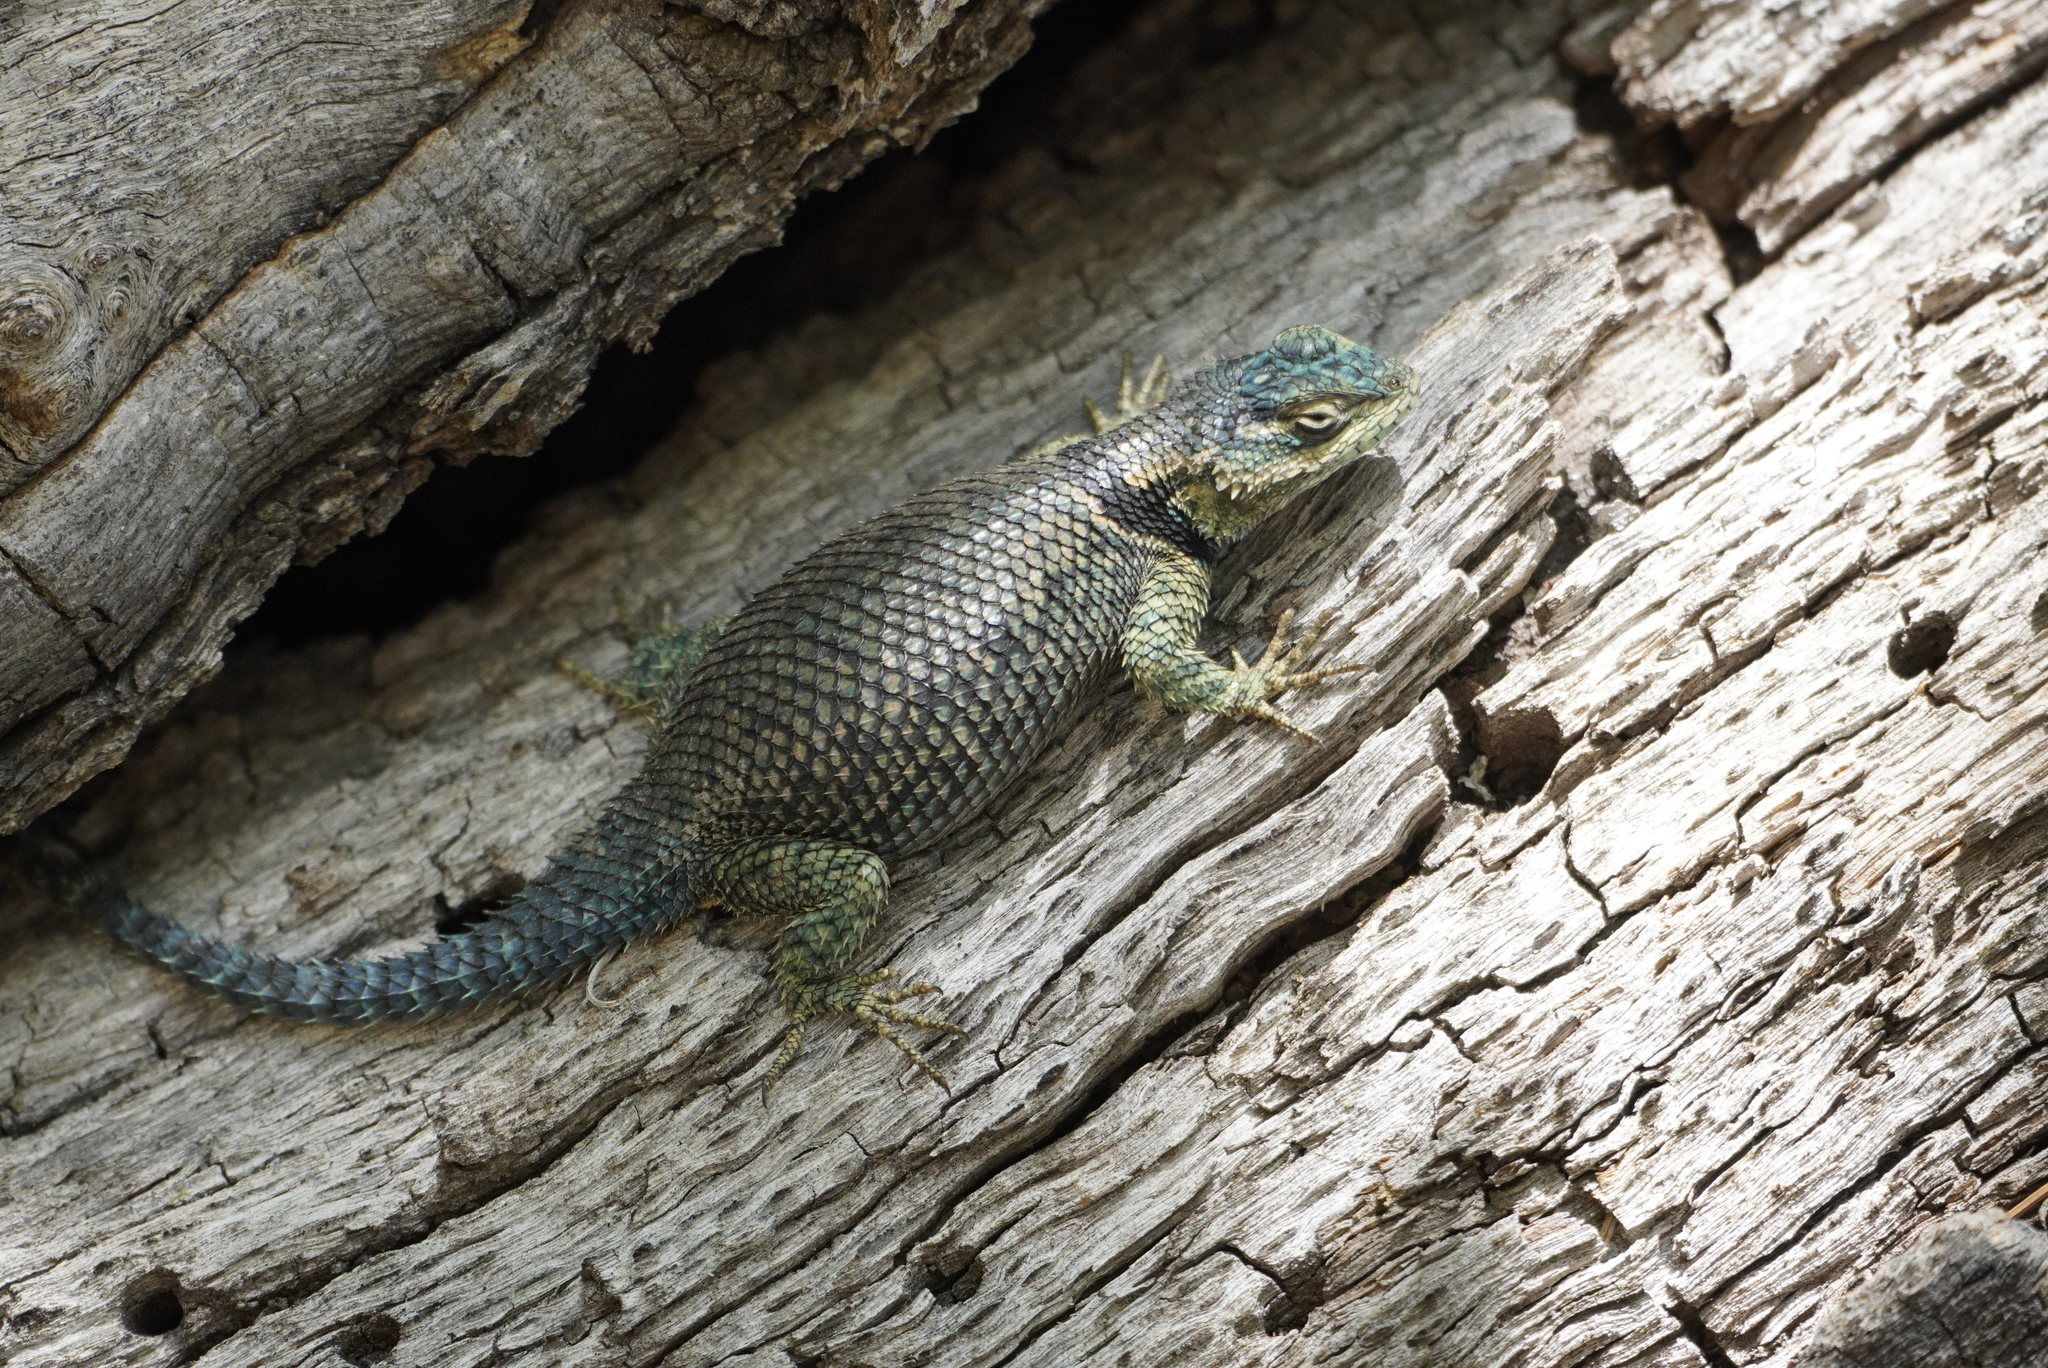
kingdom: Animalia
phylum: Chordata
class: Squamata
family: Phrynosomatidae
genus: Sceloporus
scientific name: Sceloporus jarrovii
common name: Yarrow's spiny lizard
